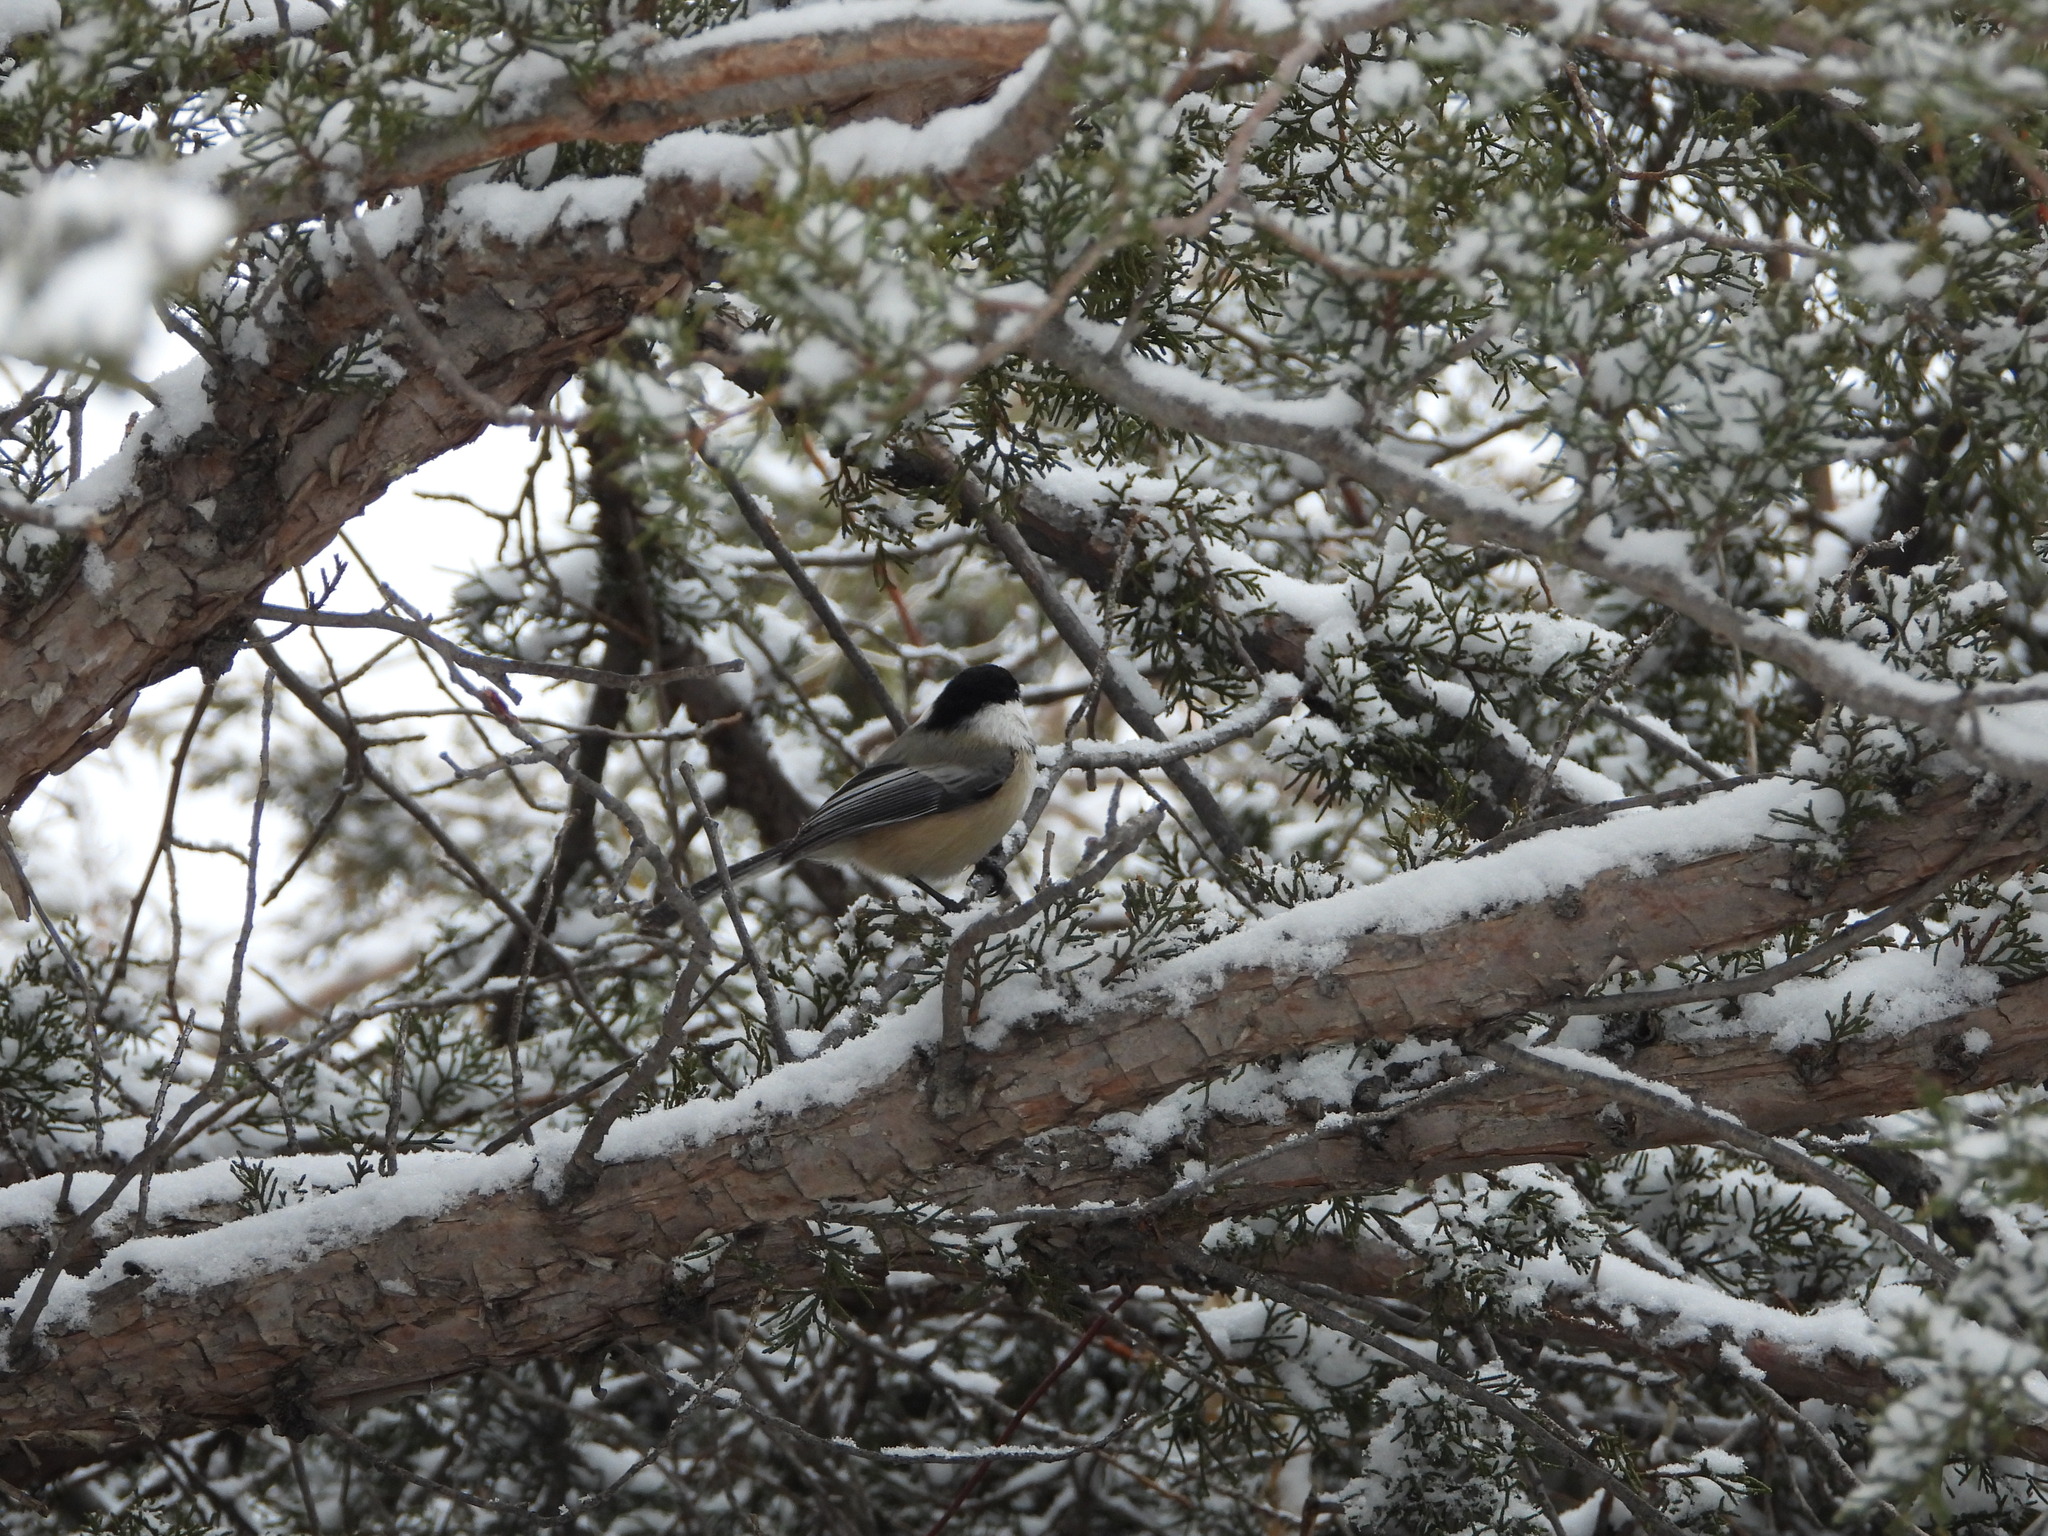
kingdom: Animalia
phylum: Chordata
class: Aves
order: Passeriformes
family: Paridae
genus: Poecile
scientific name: Poecile atricapillus
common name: Black-capped chickadee
